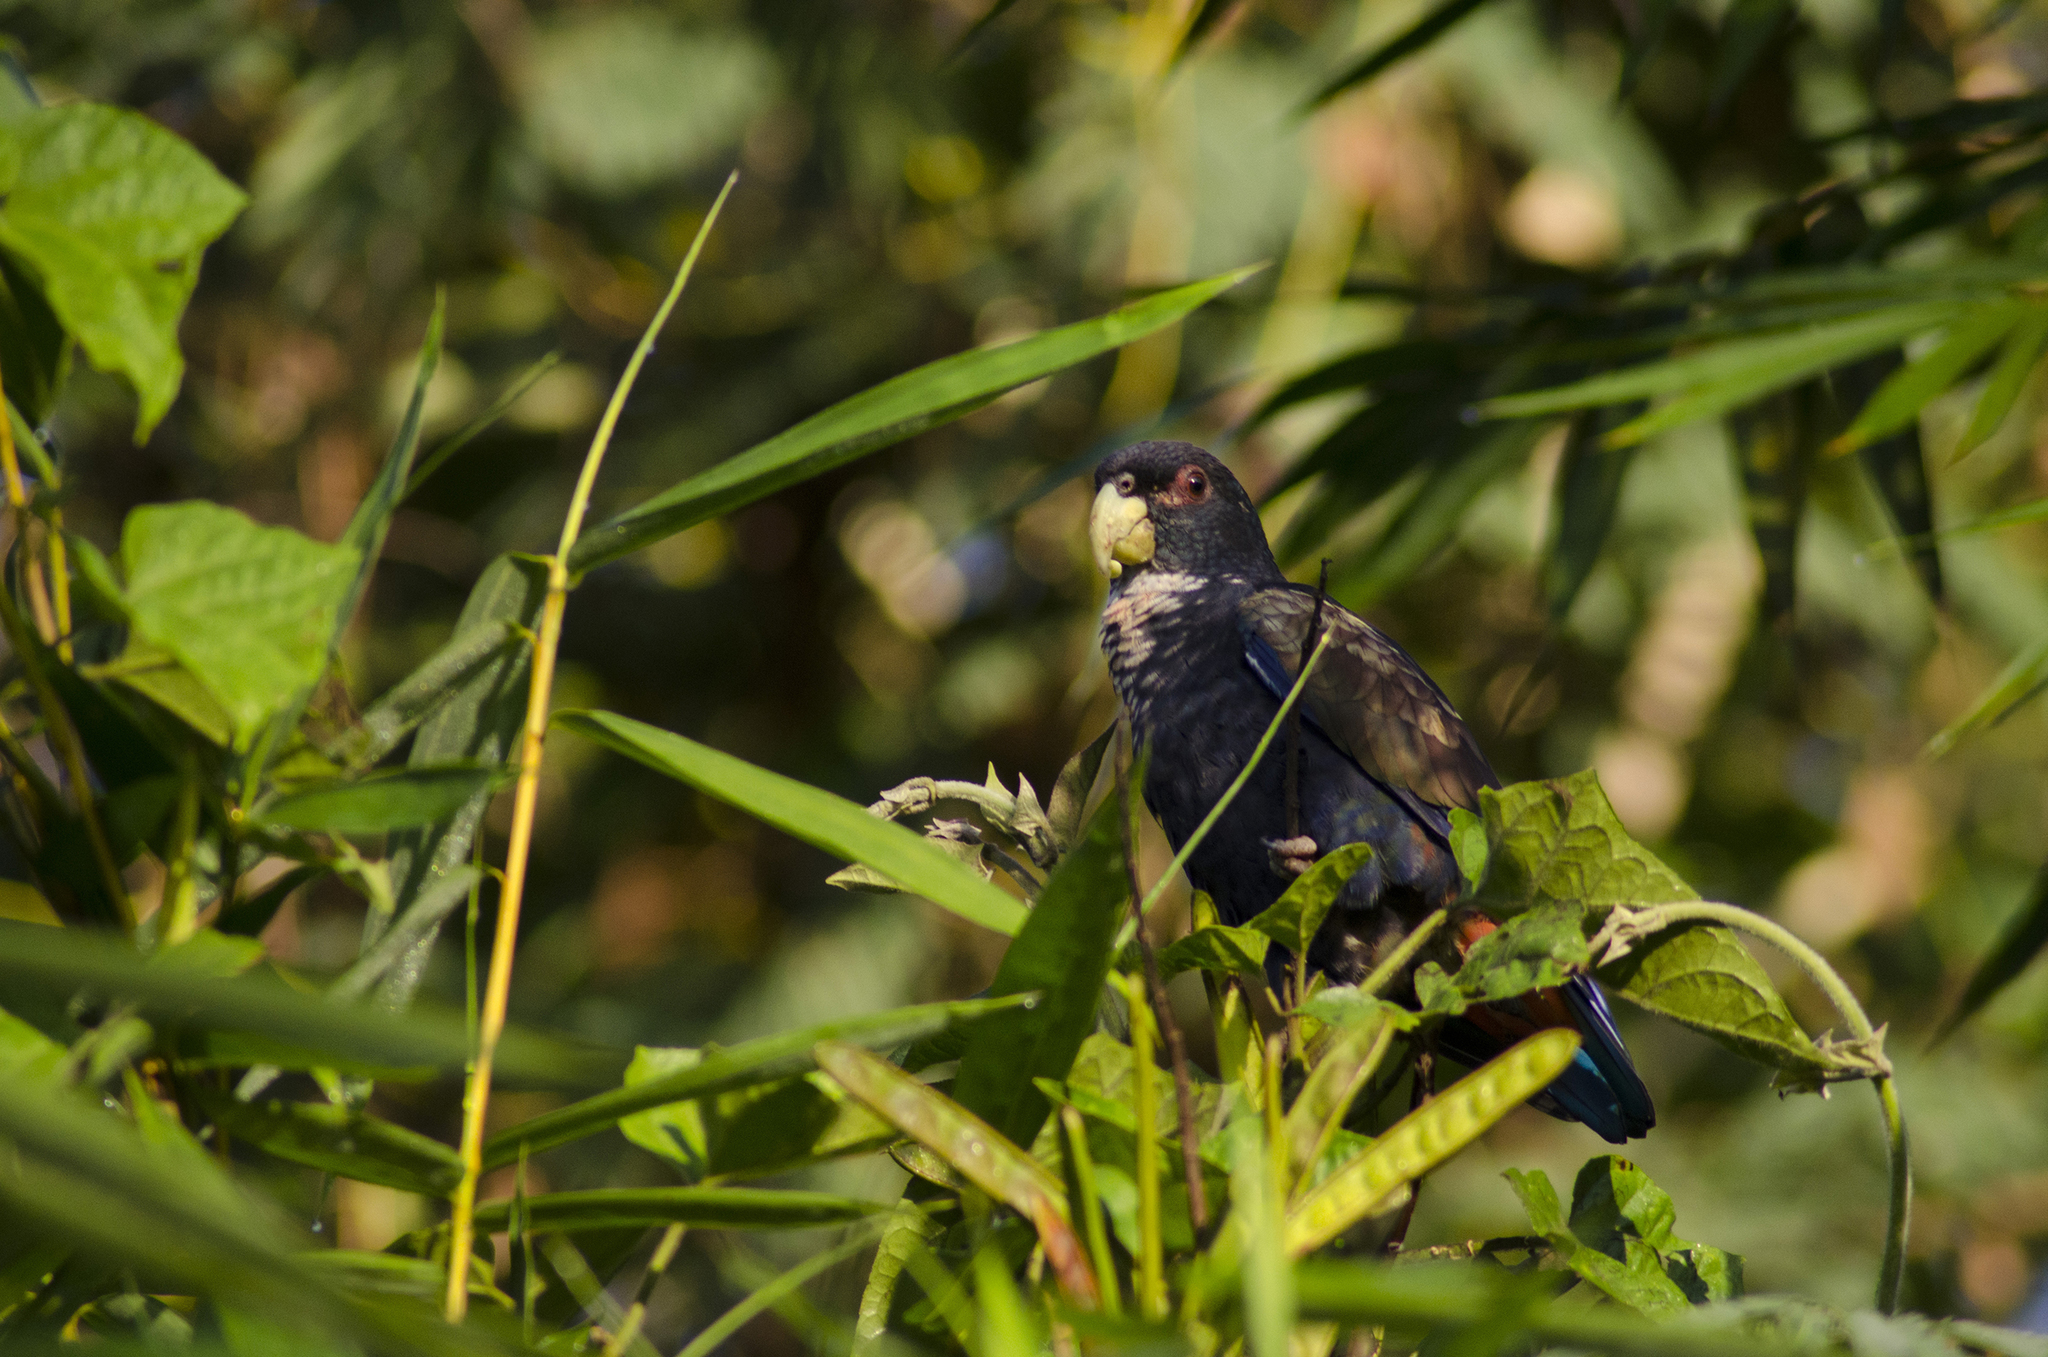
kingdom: Animalia
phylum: Chordata
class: Aves
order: Psittaciformes
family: Psittacidae
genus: Pionus
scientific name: Pionus chalcopterus
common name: Bronze-winged parrot
